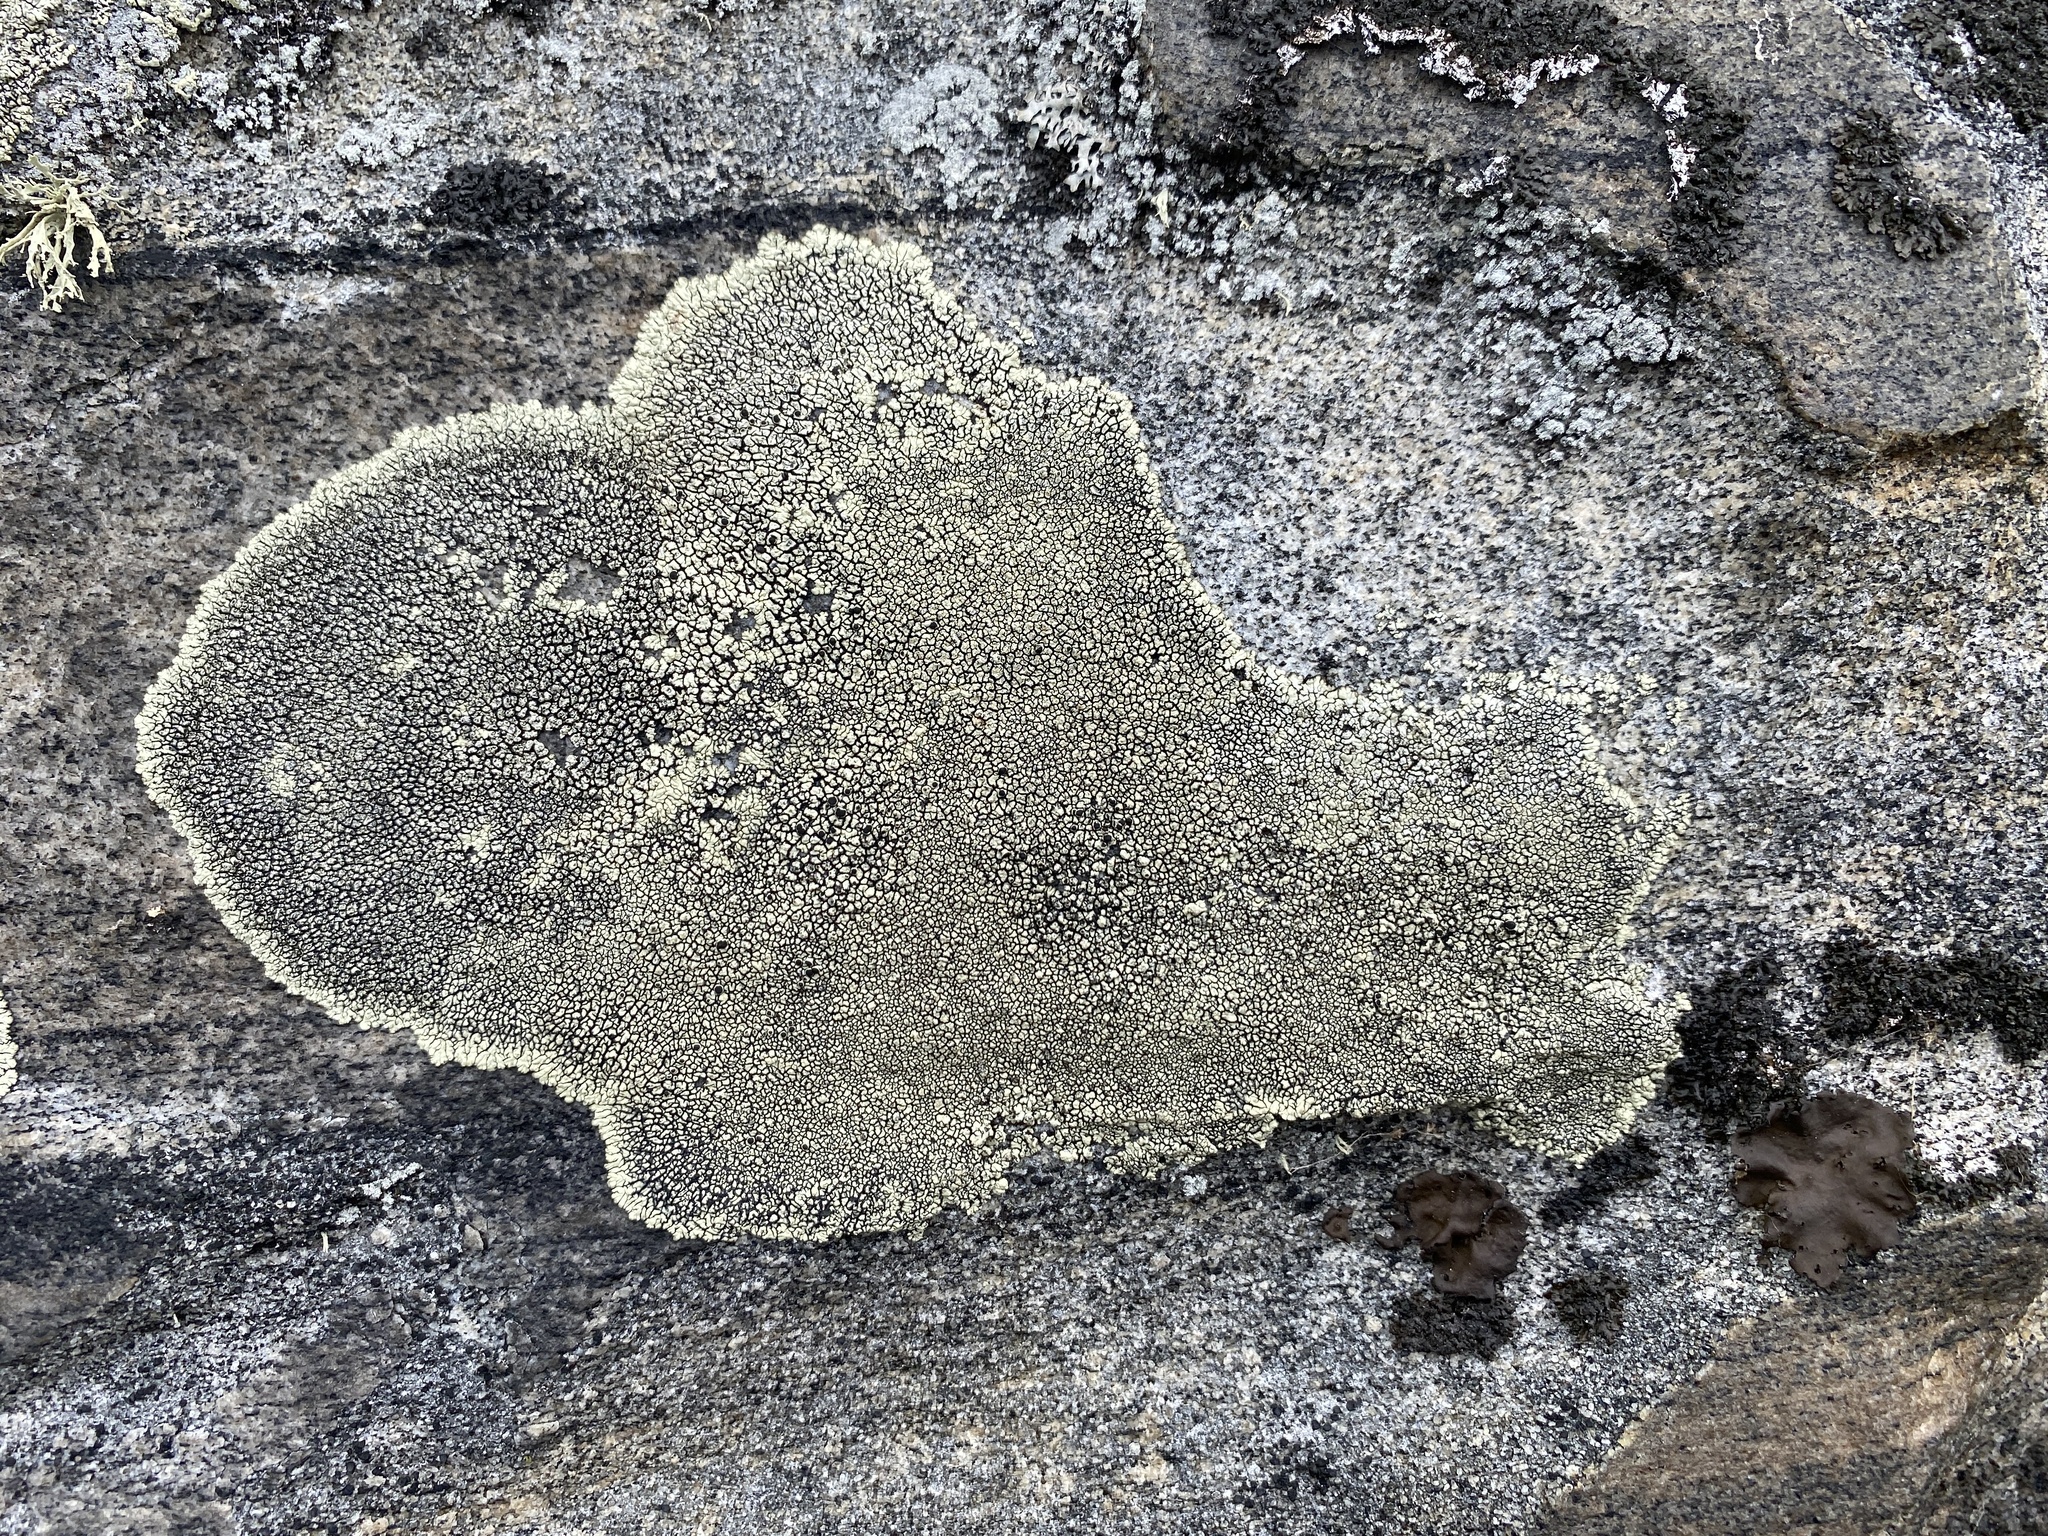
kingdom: Fungi
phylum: Ascomycota
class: Lecanoromycetes
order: Caliciales
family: Caliciaceae
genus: Dimelaena
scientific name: Dimelaena oreina
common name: Golden moonglow lichen
